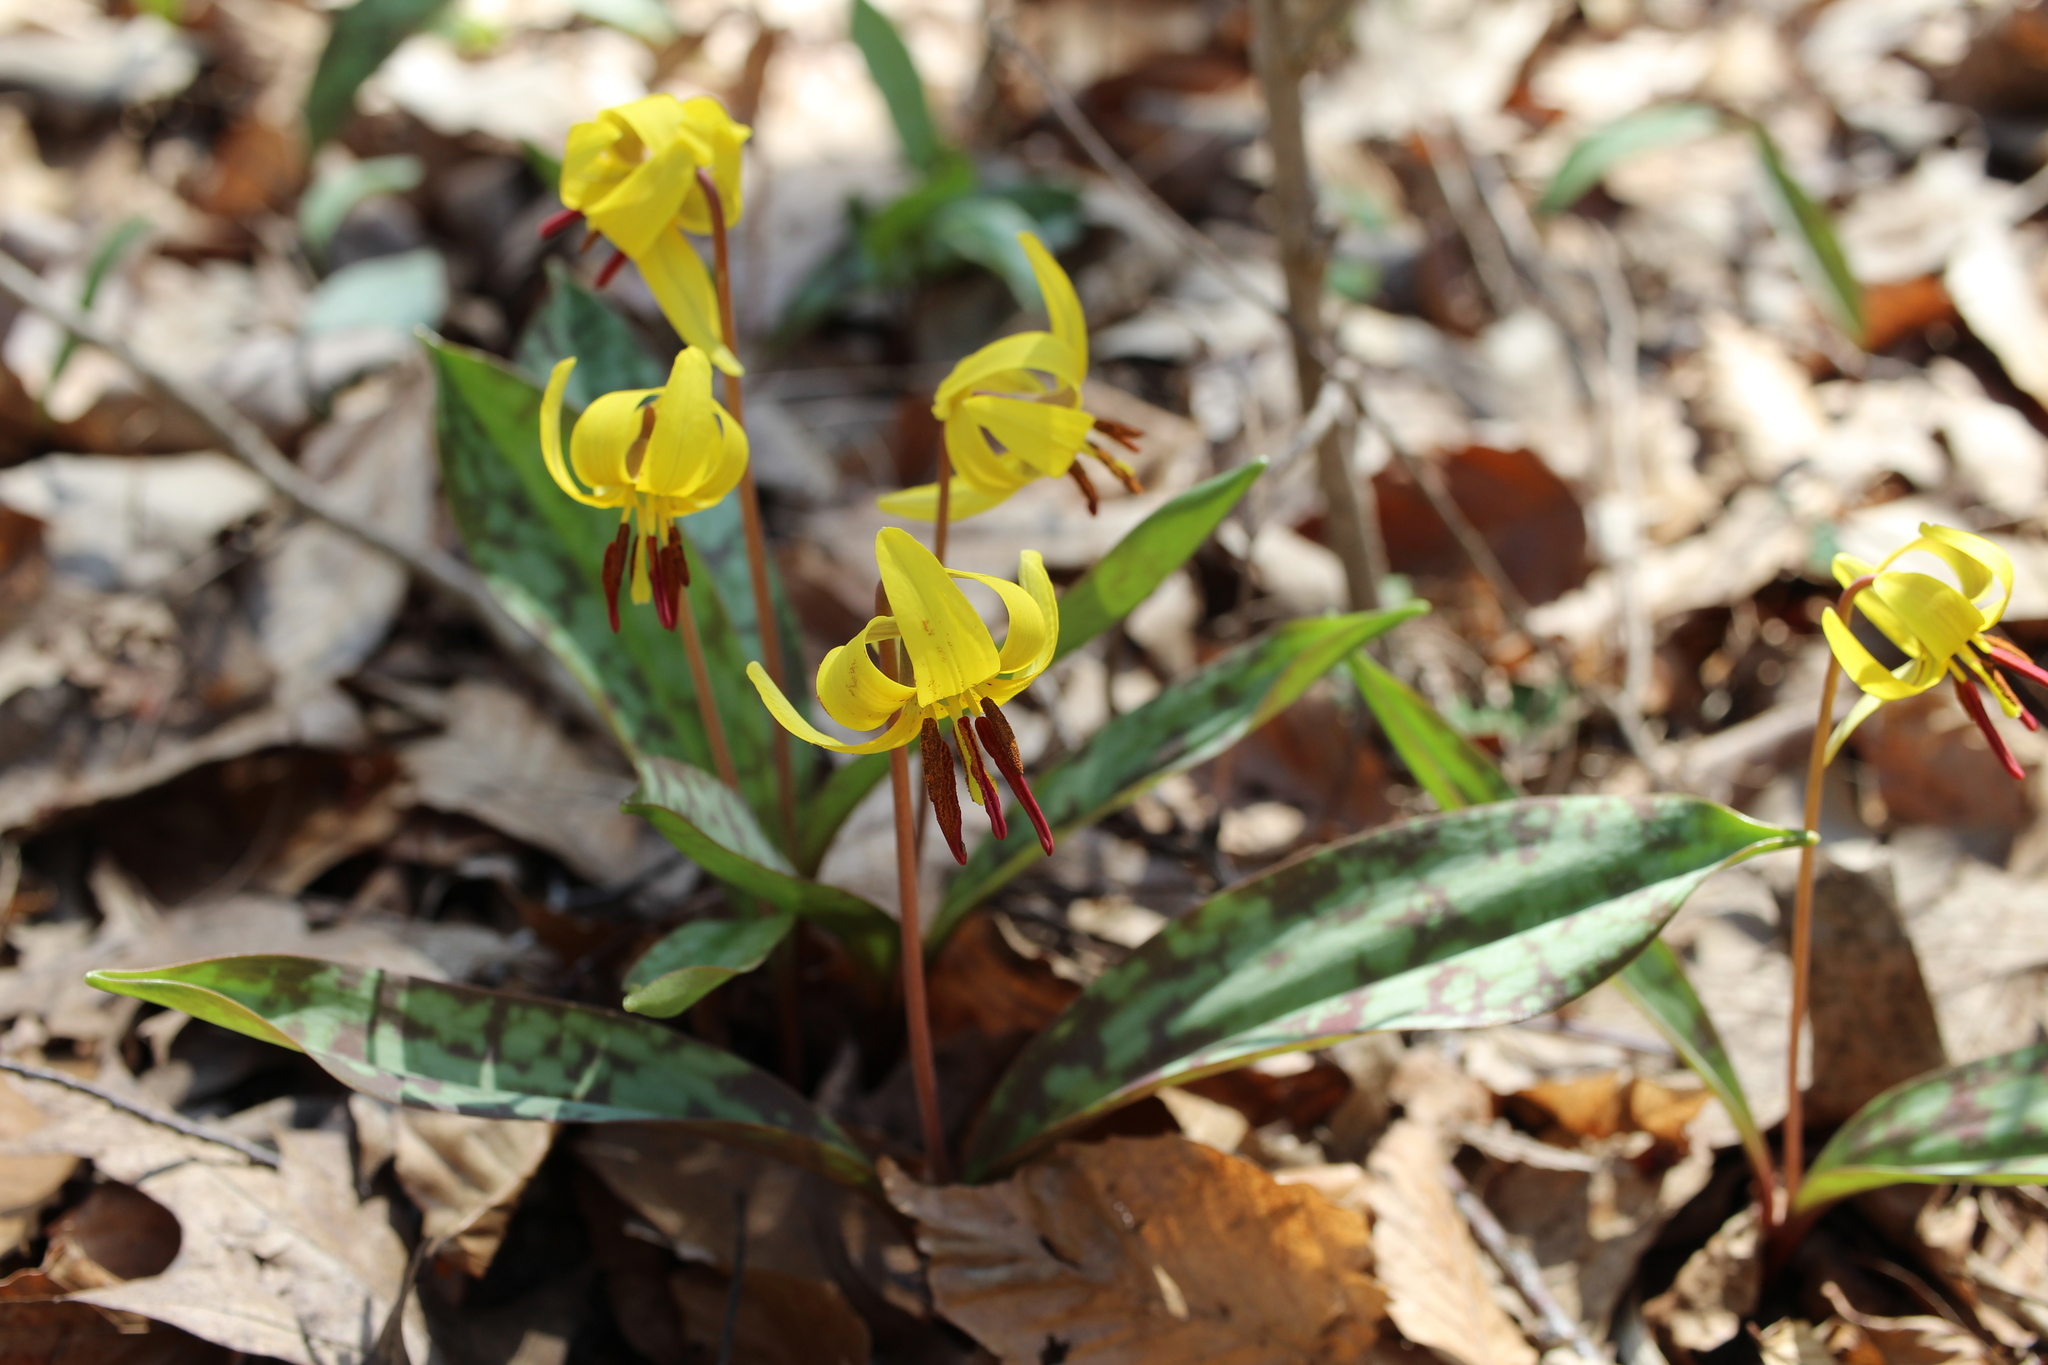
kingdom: Plantae
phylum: Tracheophyta
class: Liliopsida
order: Liliales
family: Liliaceae
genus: Erythronium
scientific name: Erythronium americanum
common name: Yellow adder's-tongue
